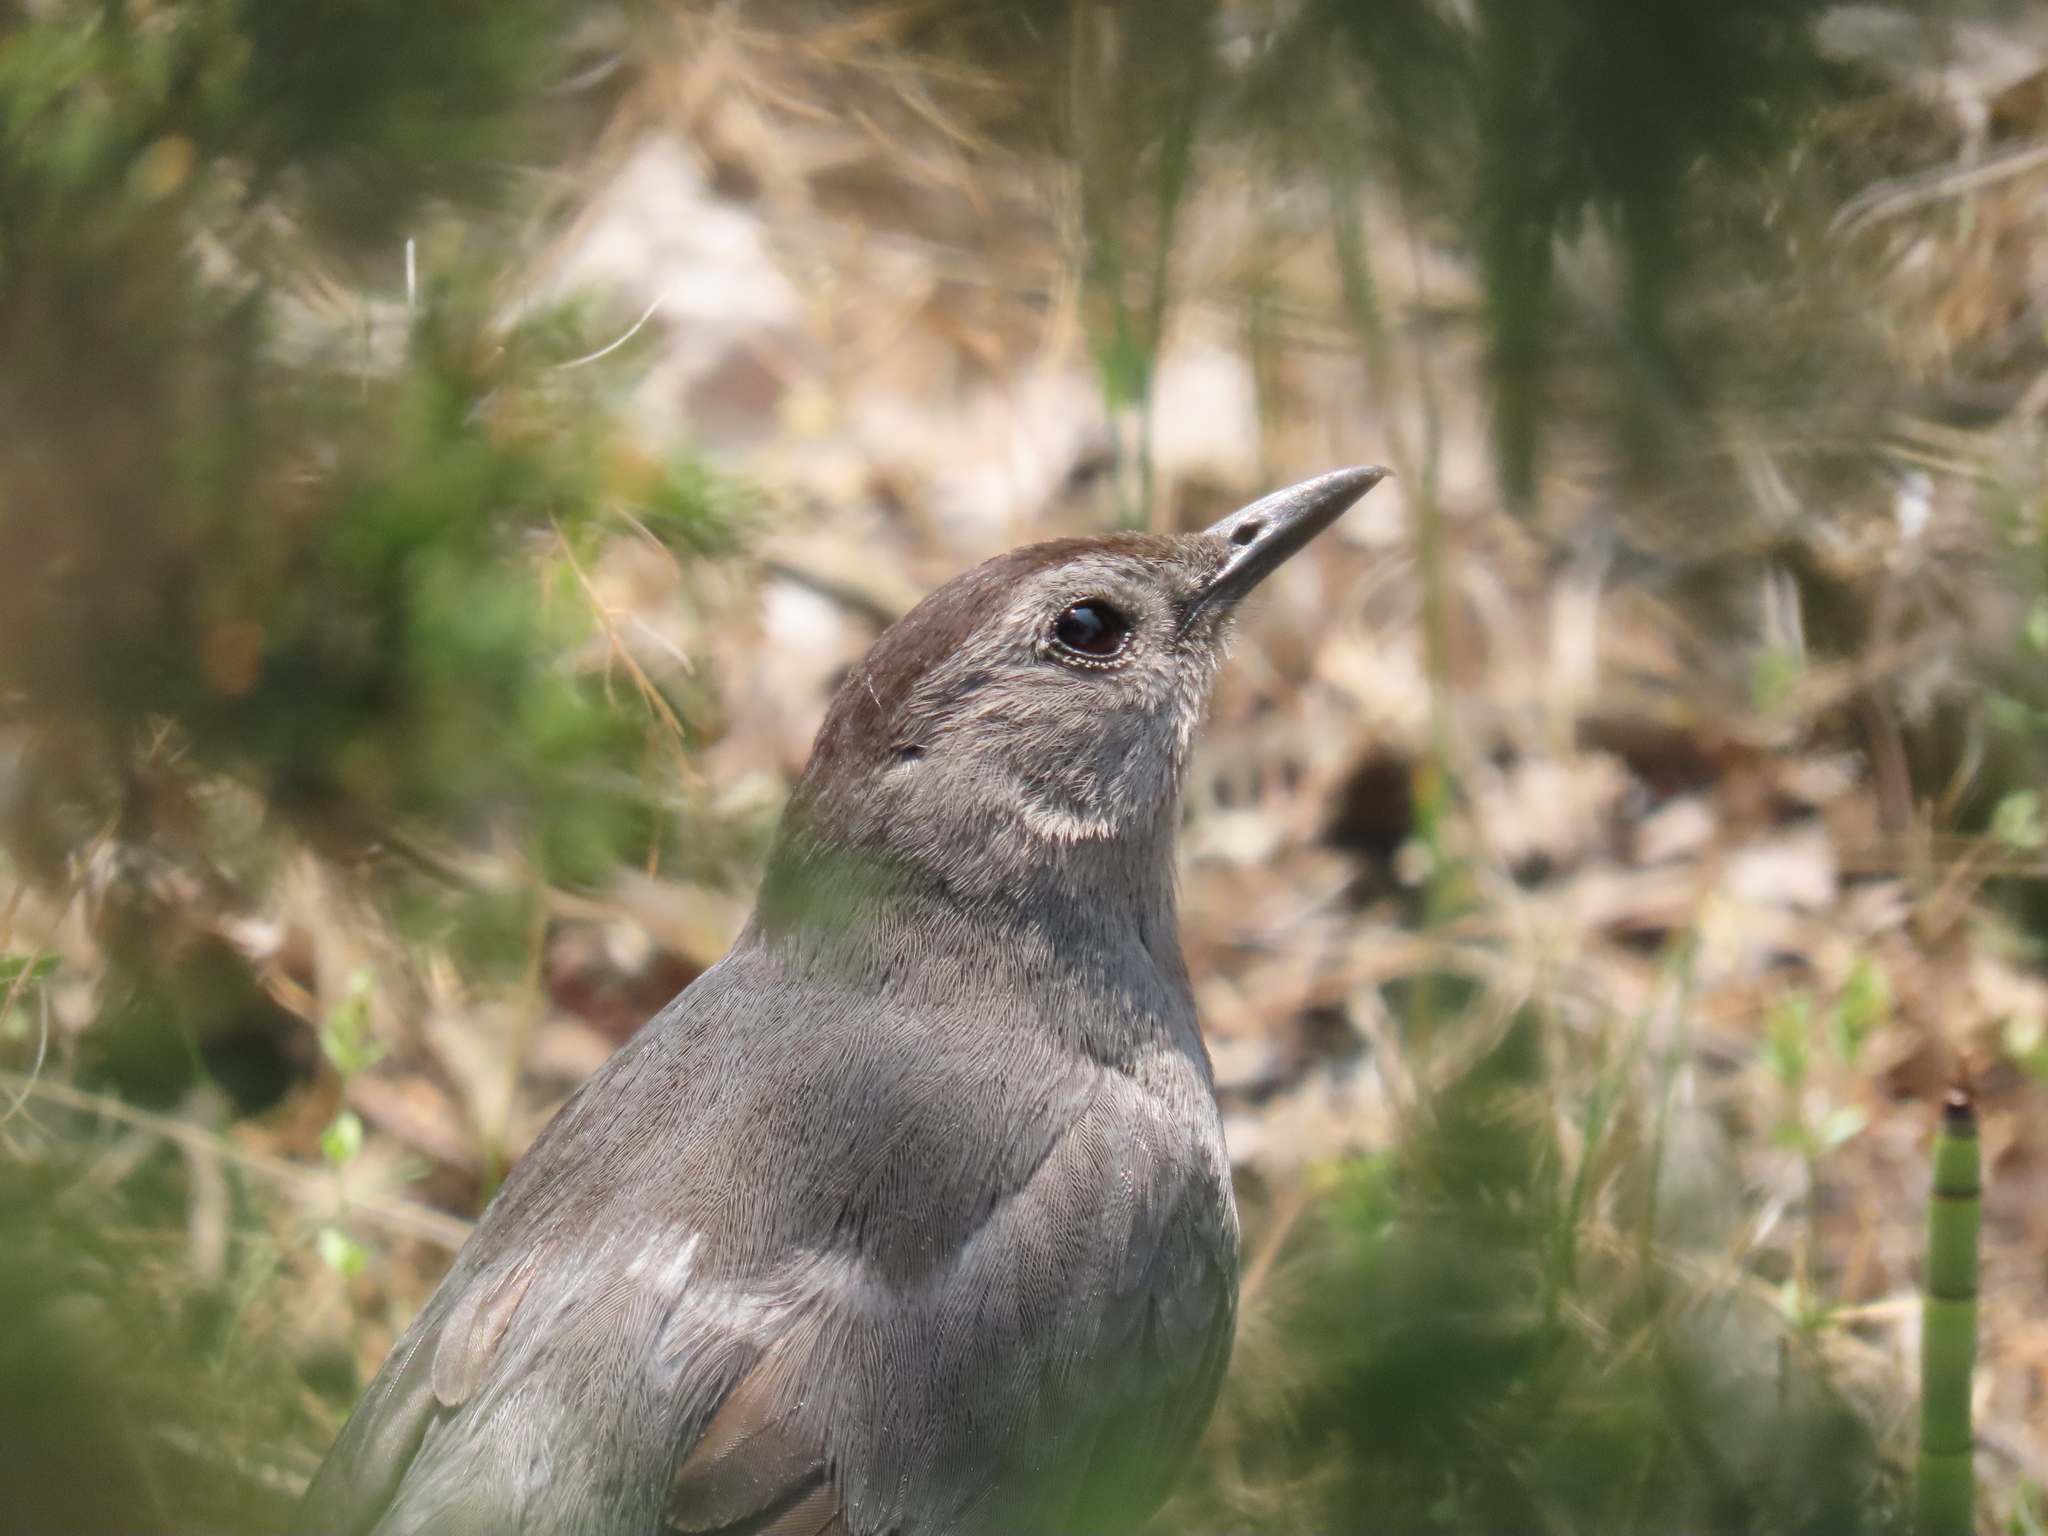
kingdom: Animalia
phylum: Chordata
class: Aves
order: Passeriformes
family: Mimidae
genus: Dumetella
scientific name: Dumetella carolinensis
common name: Gray catbird
